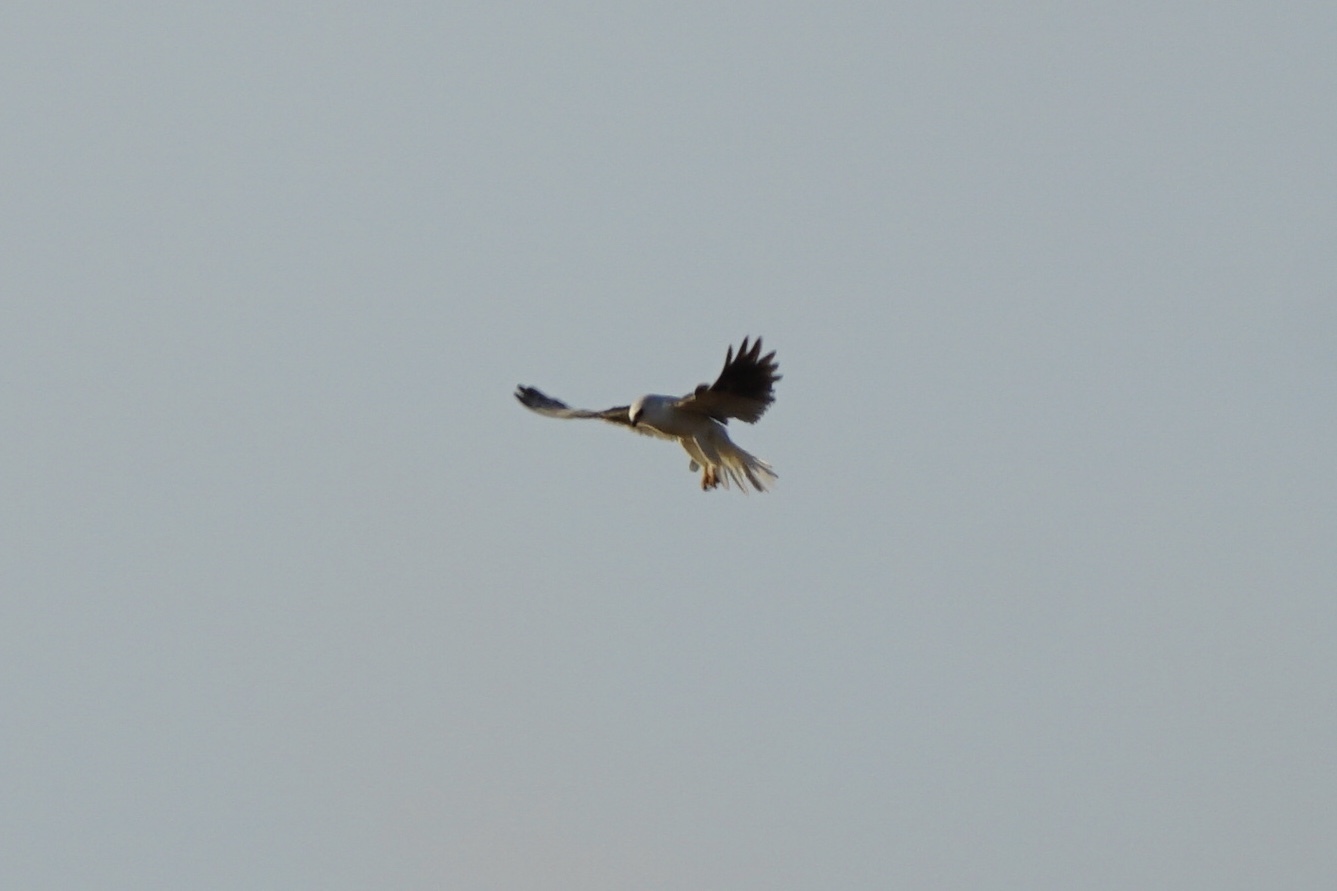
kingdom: Animalia
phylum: Chordata
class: Aves
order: Accipitriformes
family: Accipitridae
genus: Elanus
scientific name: Elanus leucurus
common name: White-tailed kite
